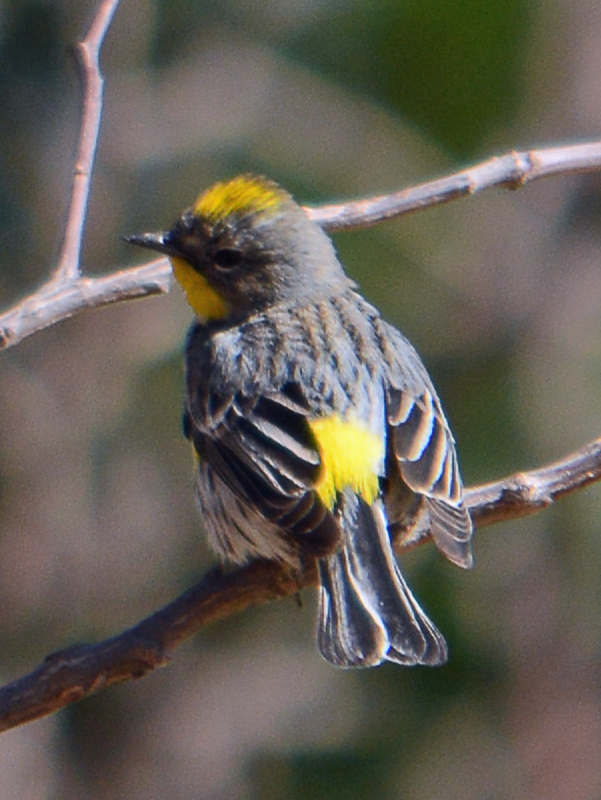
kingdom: Animalia
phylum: Chordata
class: Aves
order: Passeriformes
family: Parulidae
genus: Setophaga
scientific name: Setophaga auduboni
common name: Audubon's warbler
